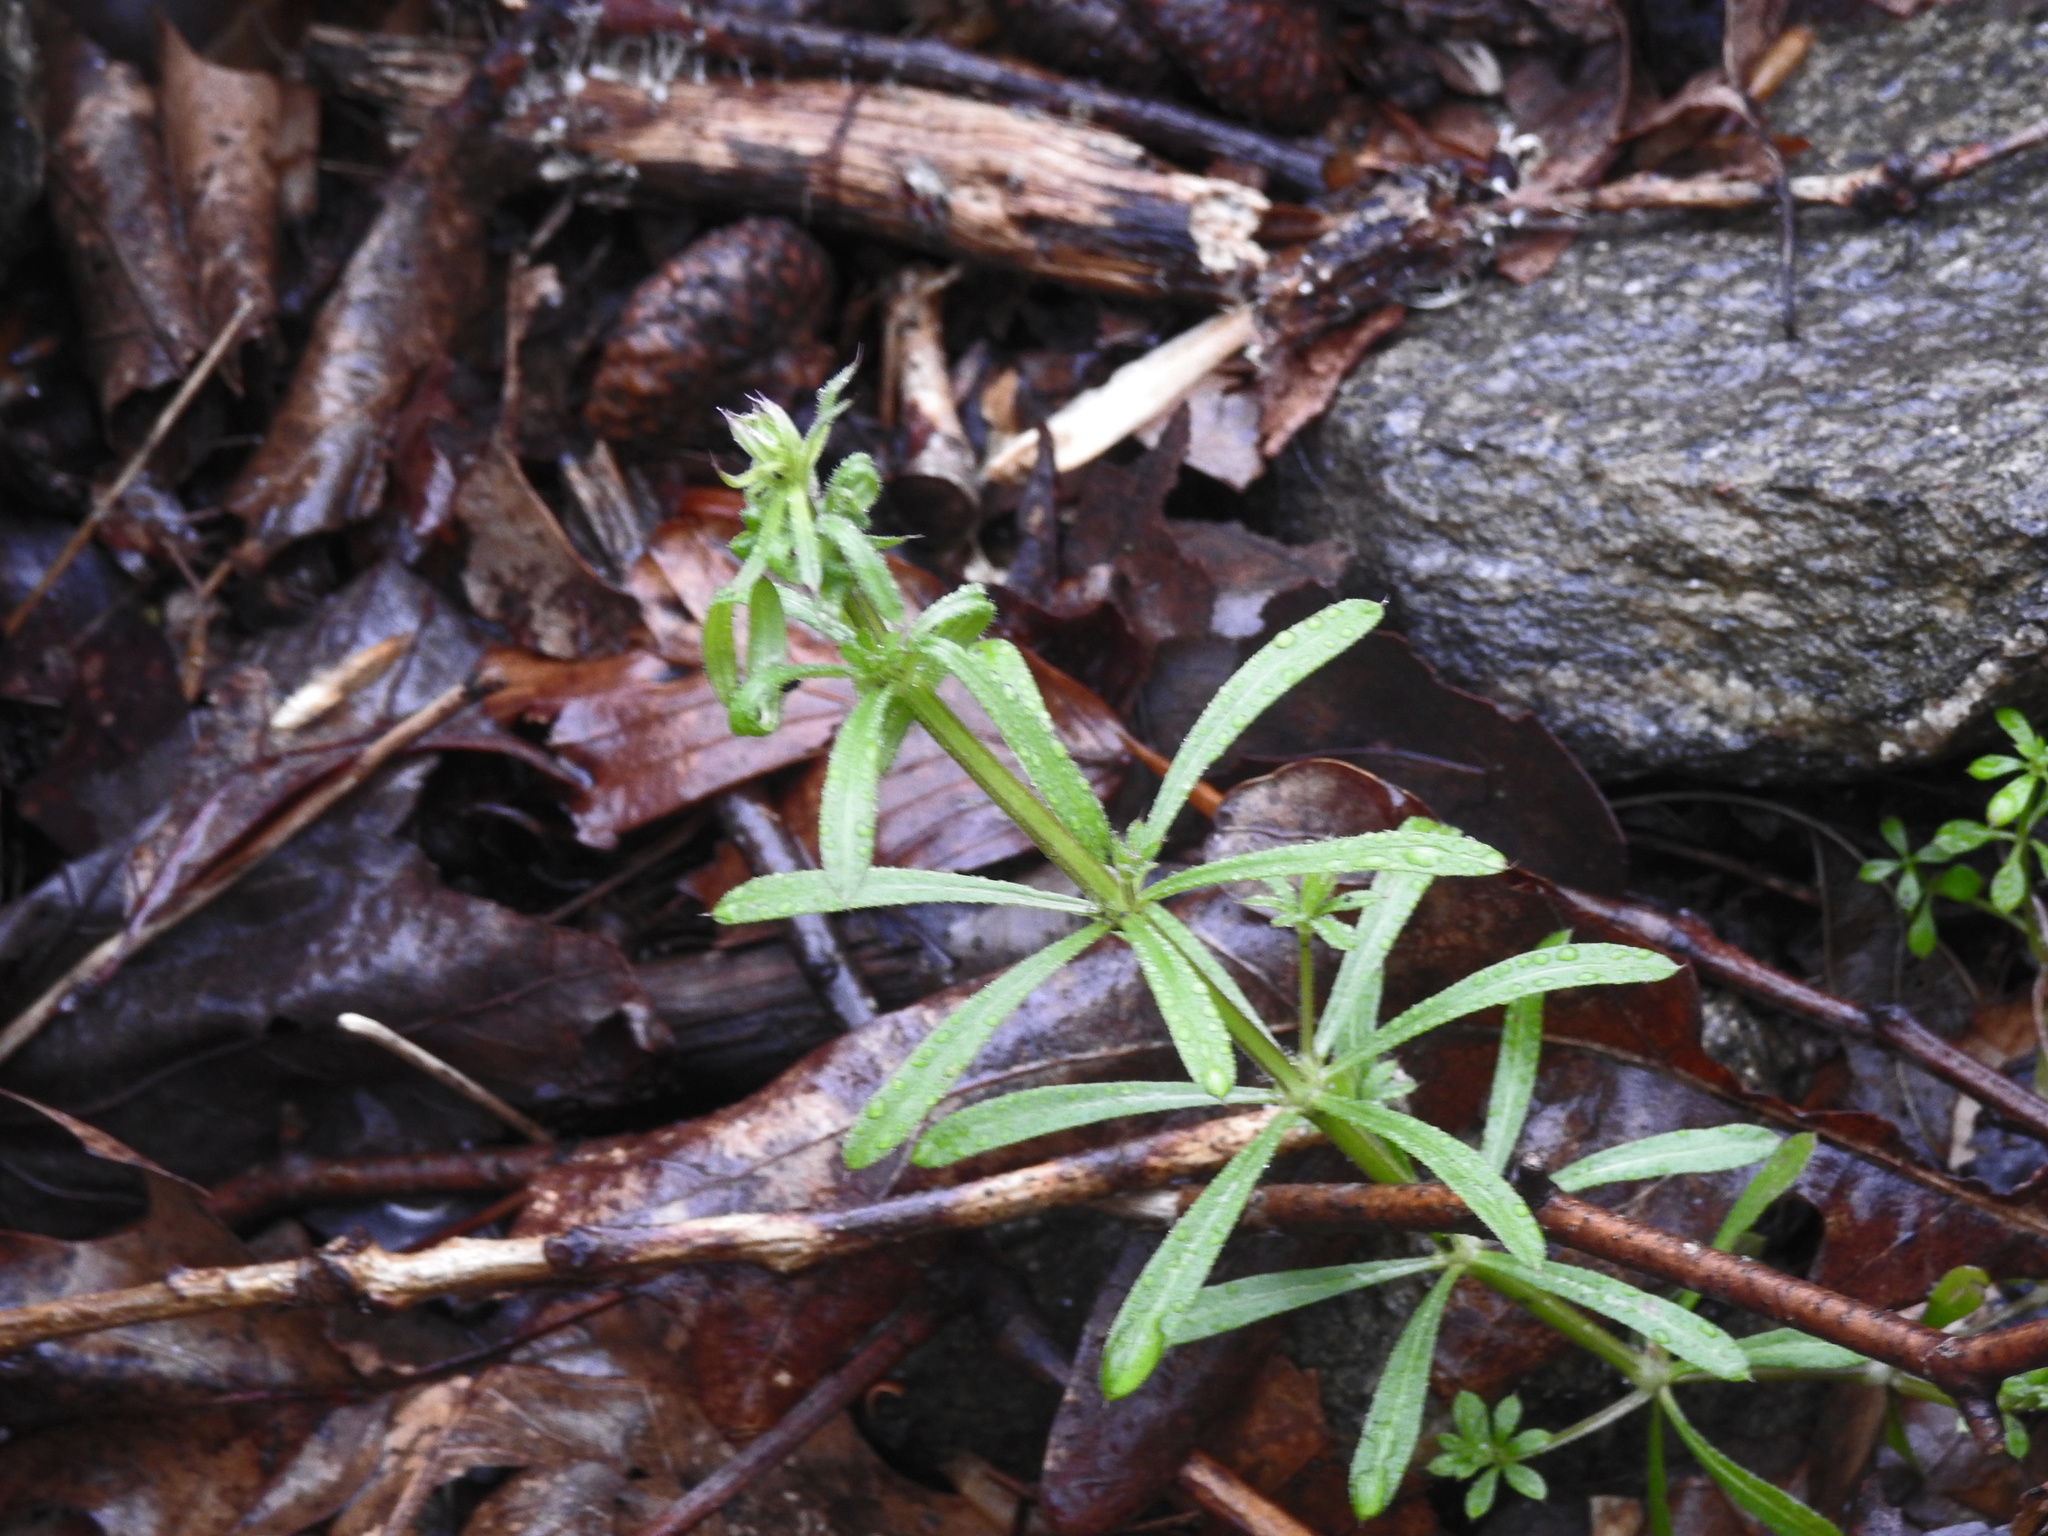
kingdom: Plantae
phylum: Tracheophyta
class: Magnoliopsida
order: Gentianales
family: Rubiaceae
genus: Galium
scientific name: Galium aparine
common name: Cleavers
